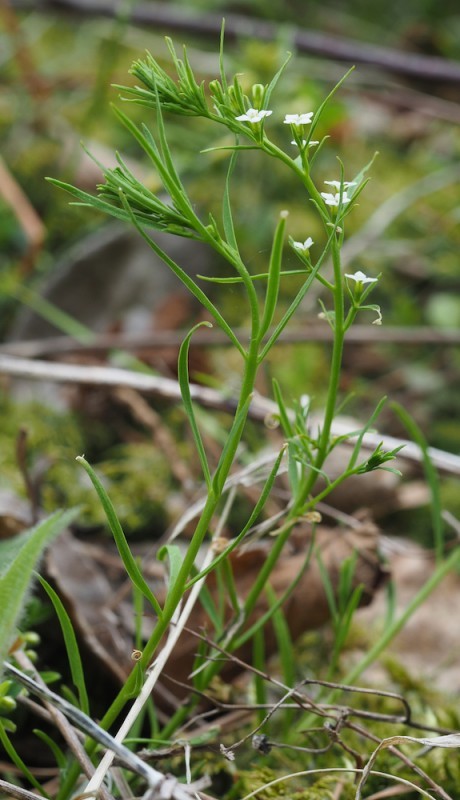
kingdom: Plantae
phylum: Tracheophyta
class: Magnoliopsida
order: Santalales
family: Thesiaceae
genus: Thesium
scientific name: Thesium alpinum
